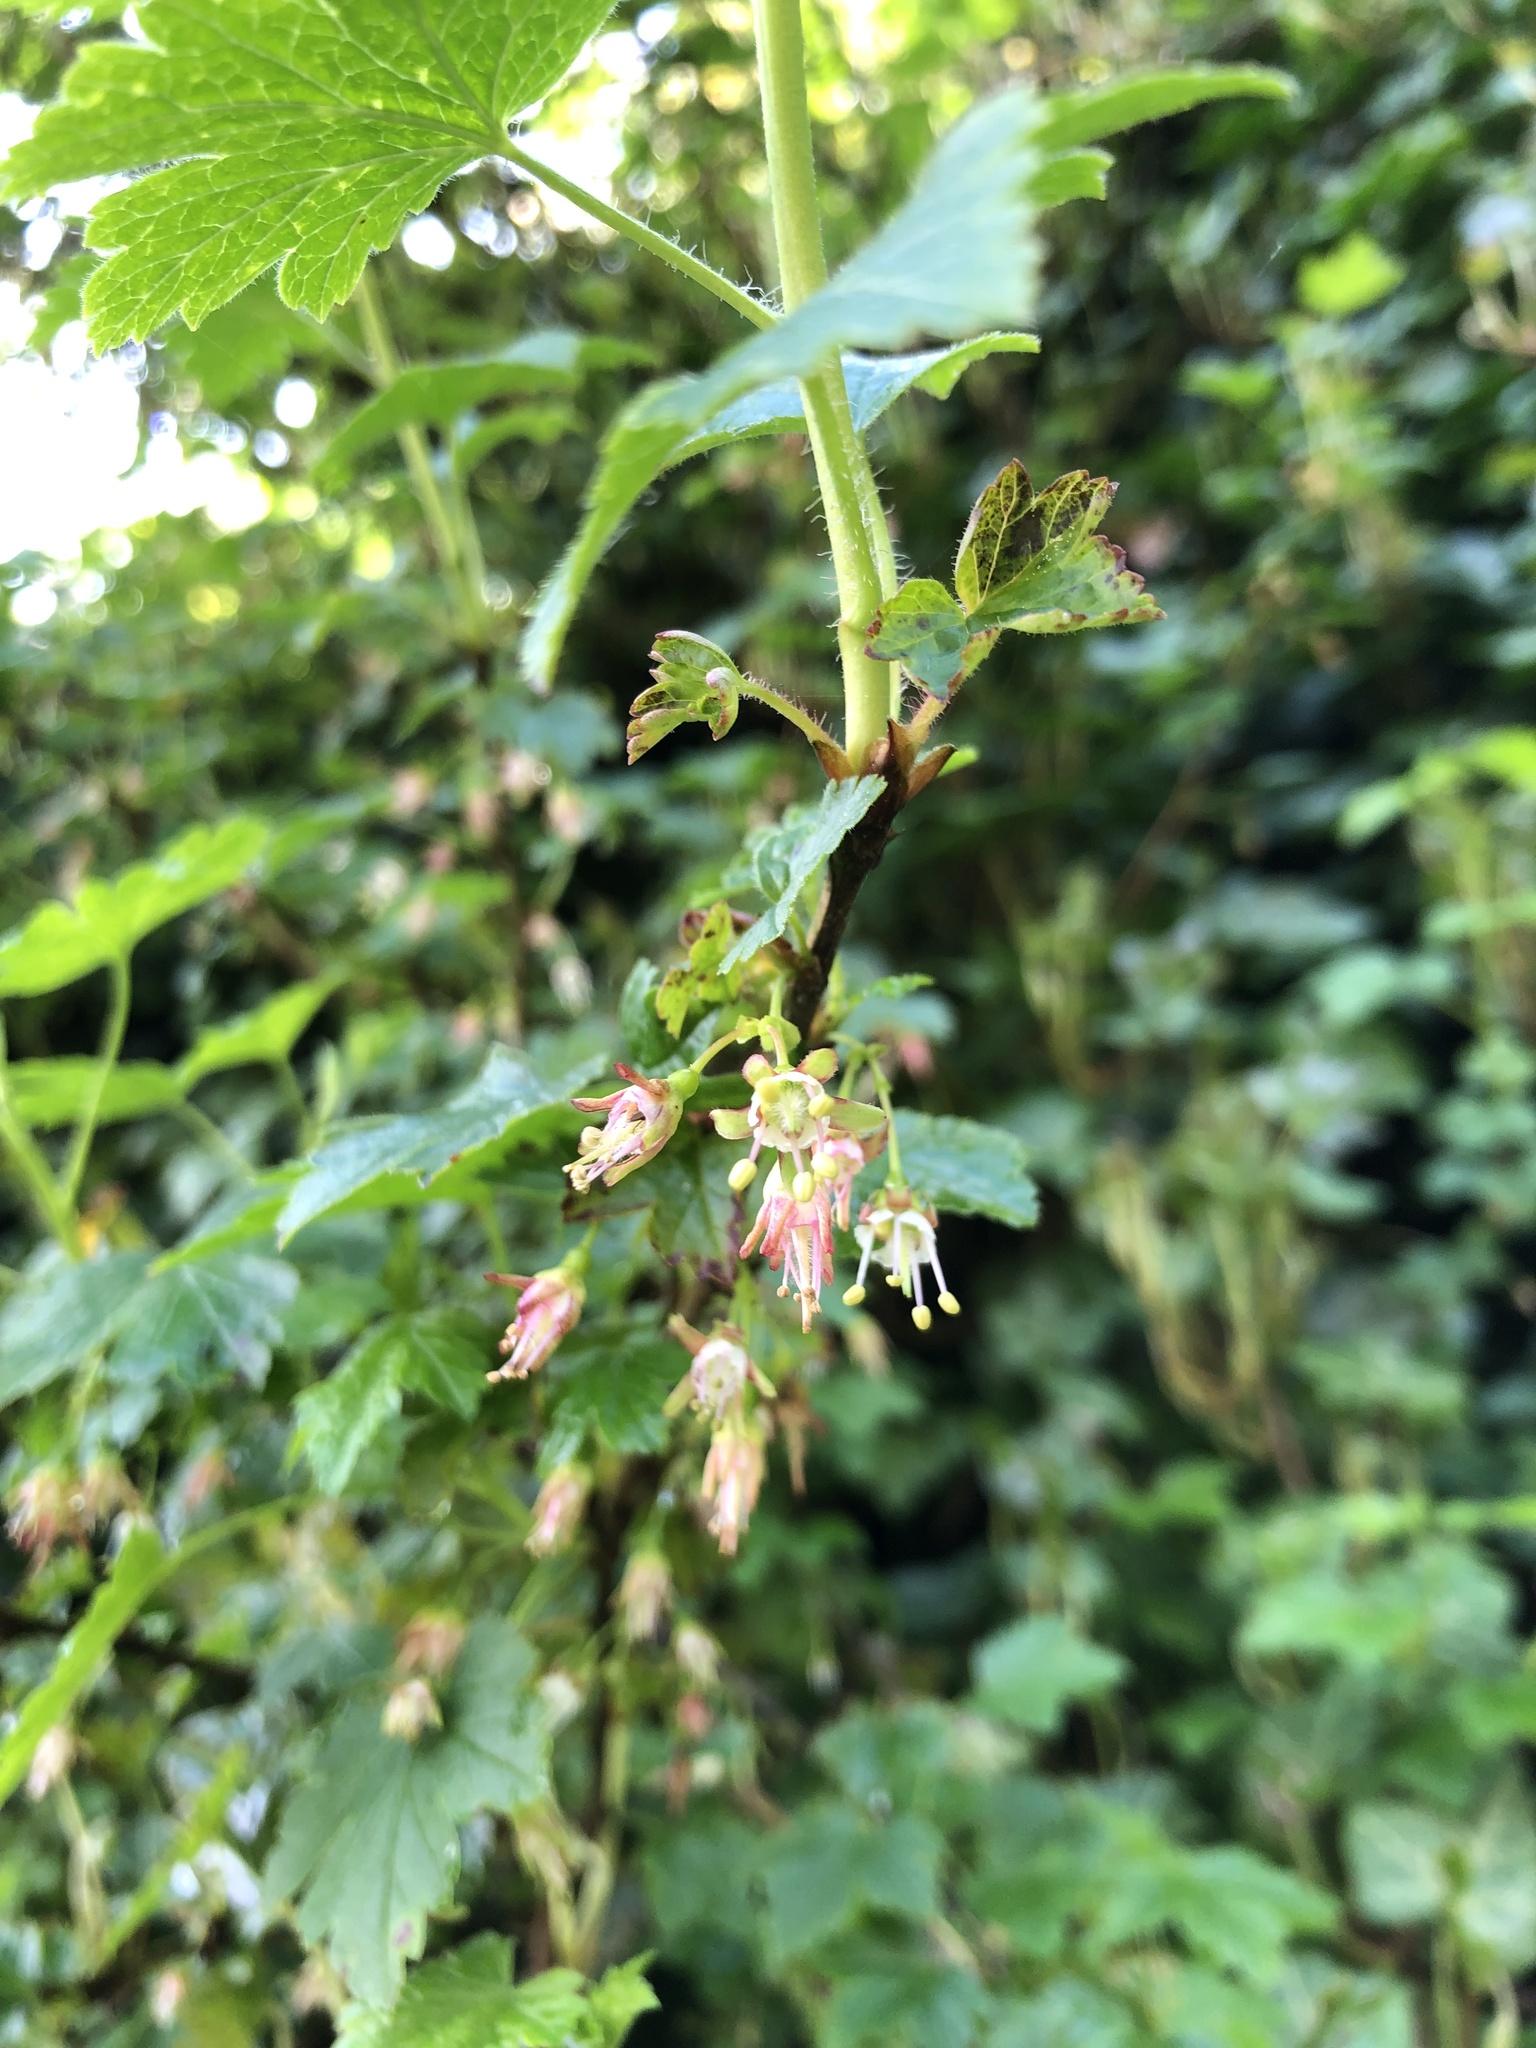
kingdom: Plantae
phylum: Tracheophyta
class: Magnoliopsida
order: Saxifragales
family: Grossulariaceae
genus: Ribes
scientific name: Ribes divaricatum
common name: Wild black gooseberry
